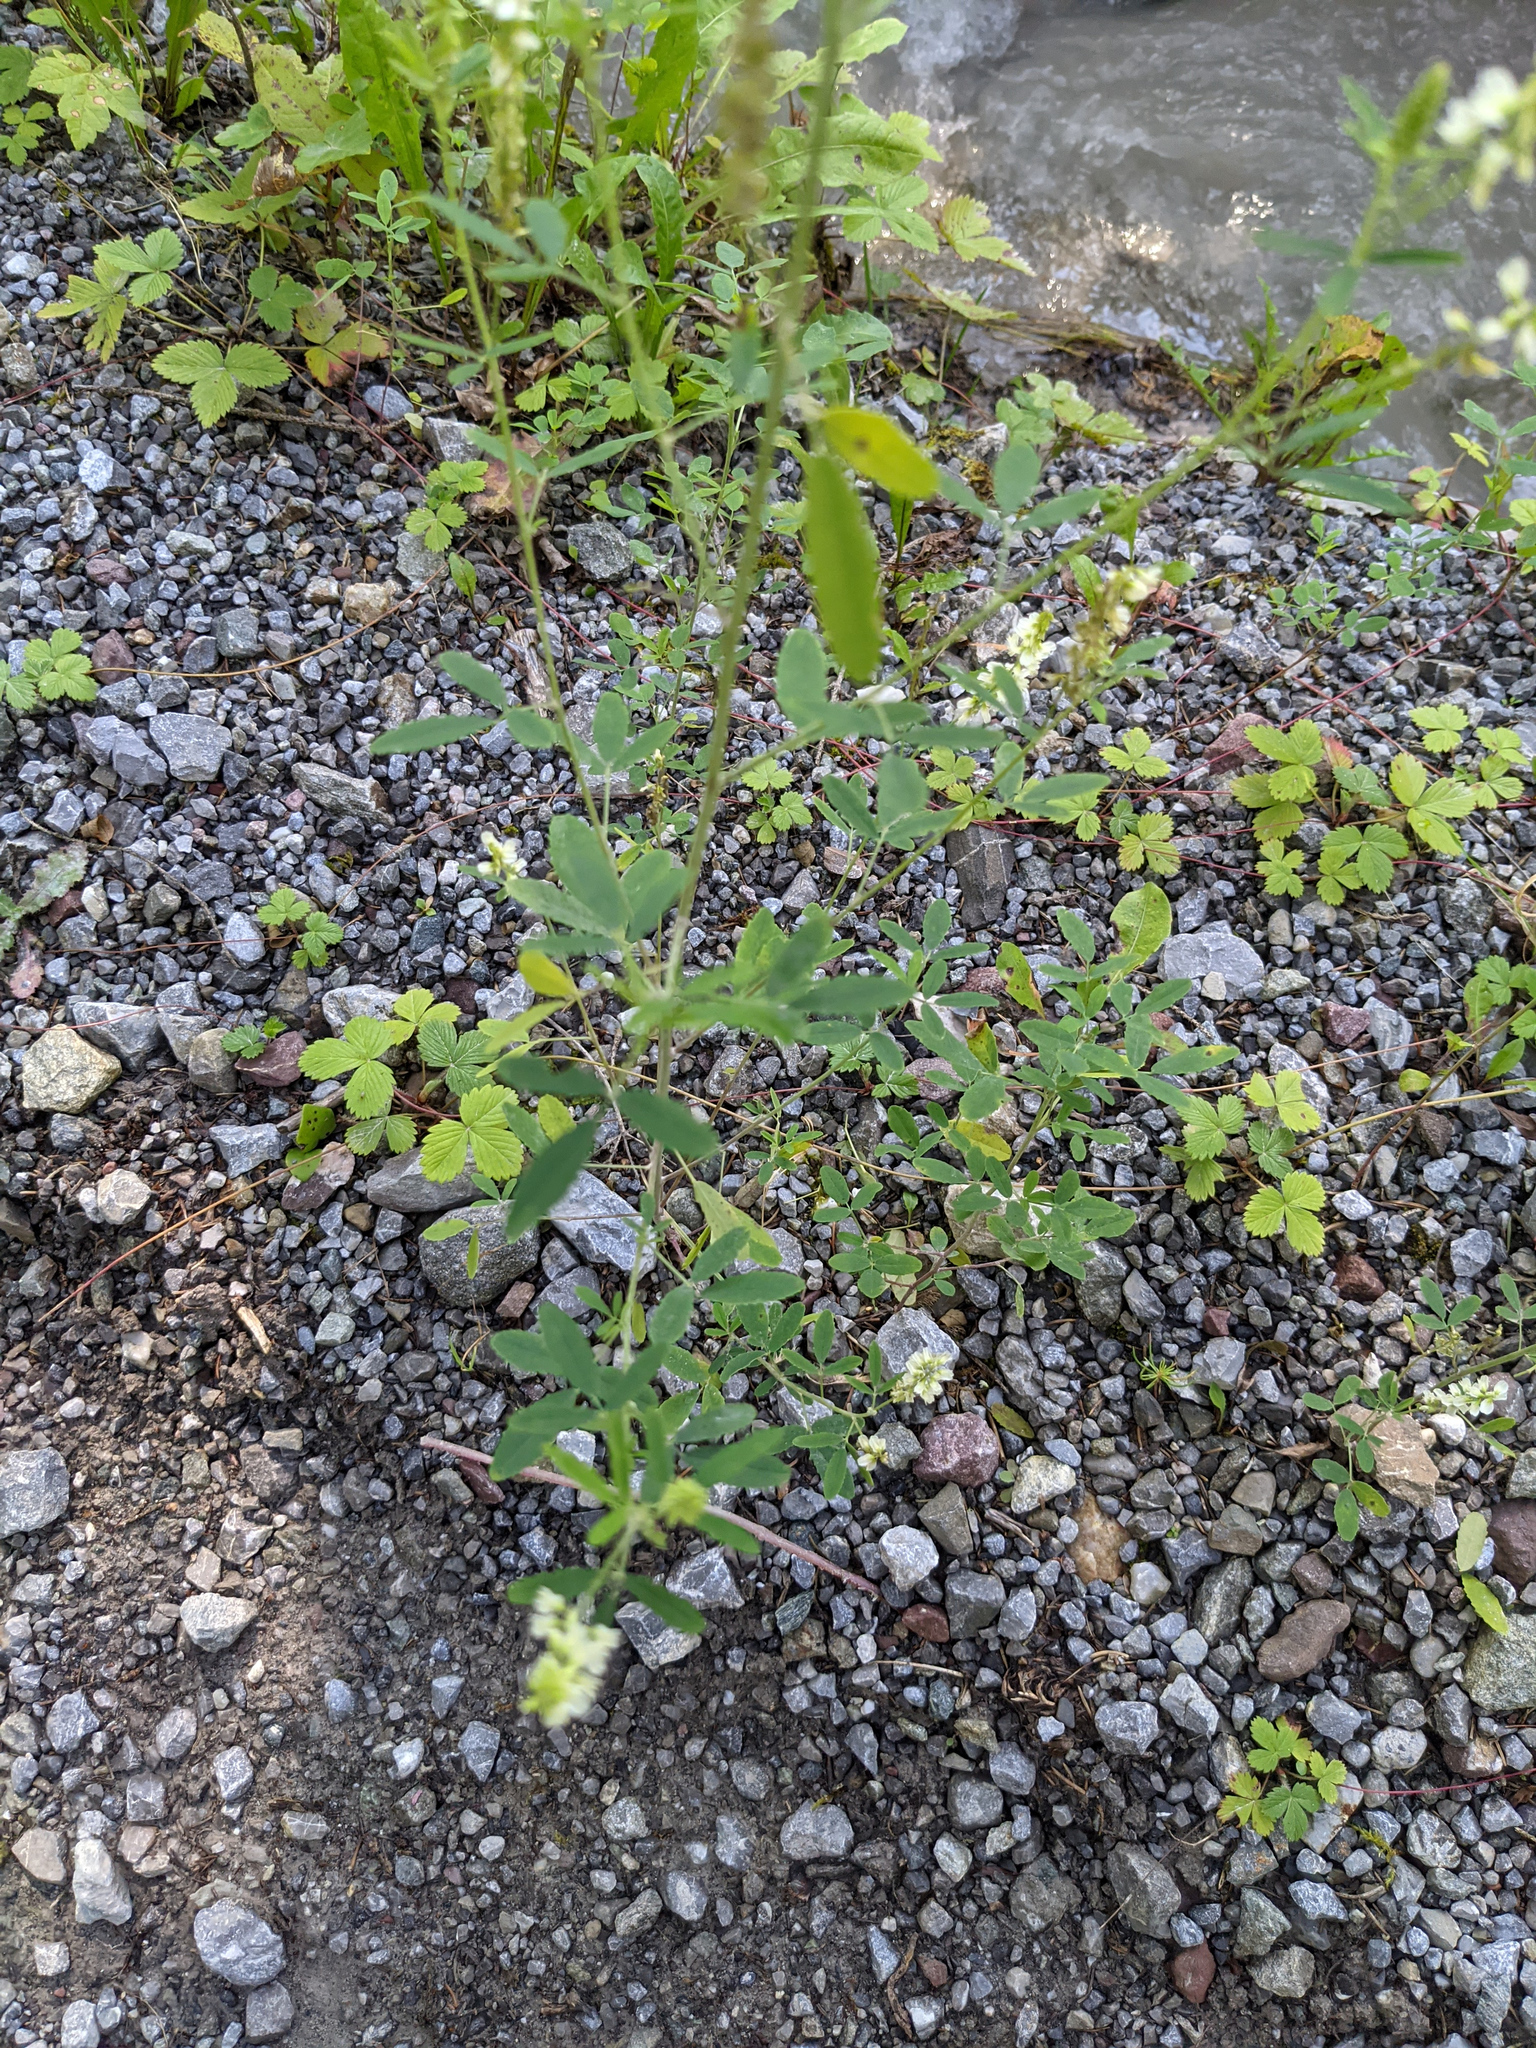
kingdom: Plantae
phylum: Tracheophyta
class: Magnoliopsida
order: Fabales
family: Fabaceae
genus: Melilotus
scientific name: Melilotus albus
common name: White melilot
